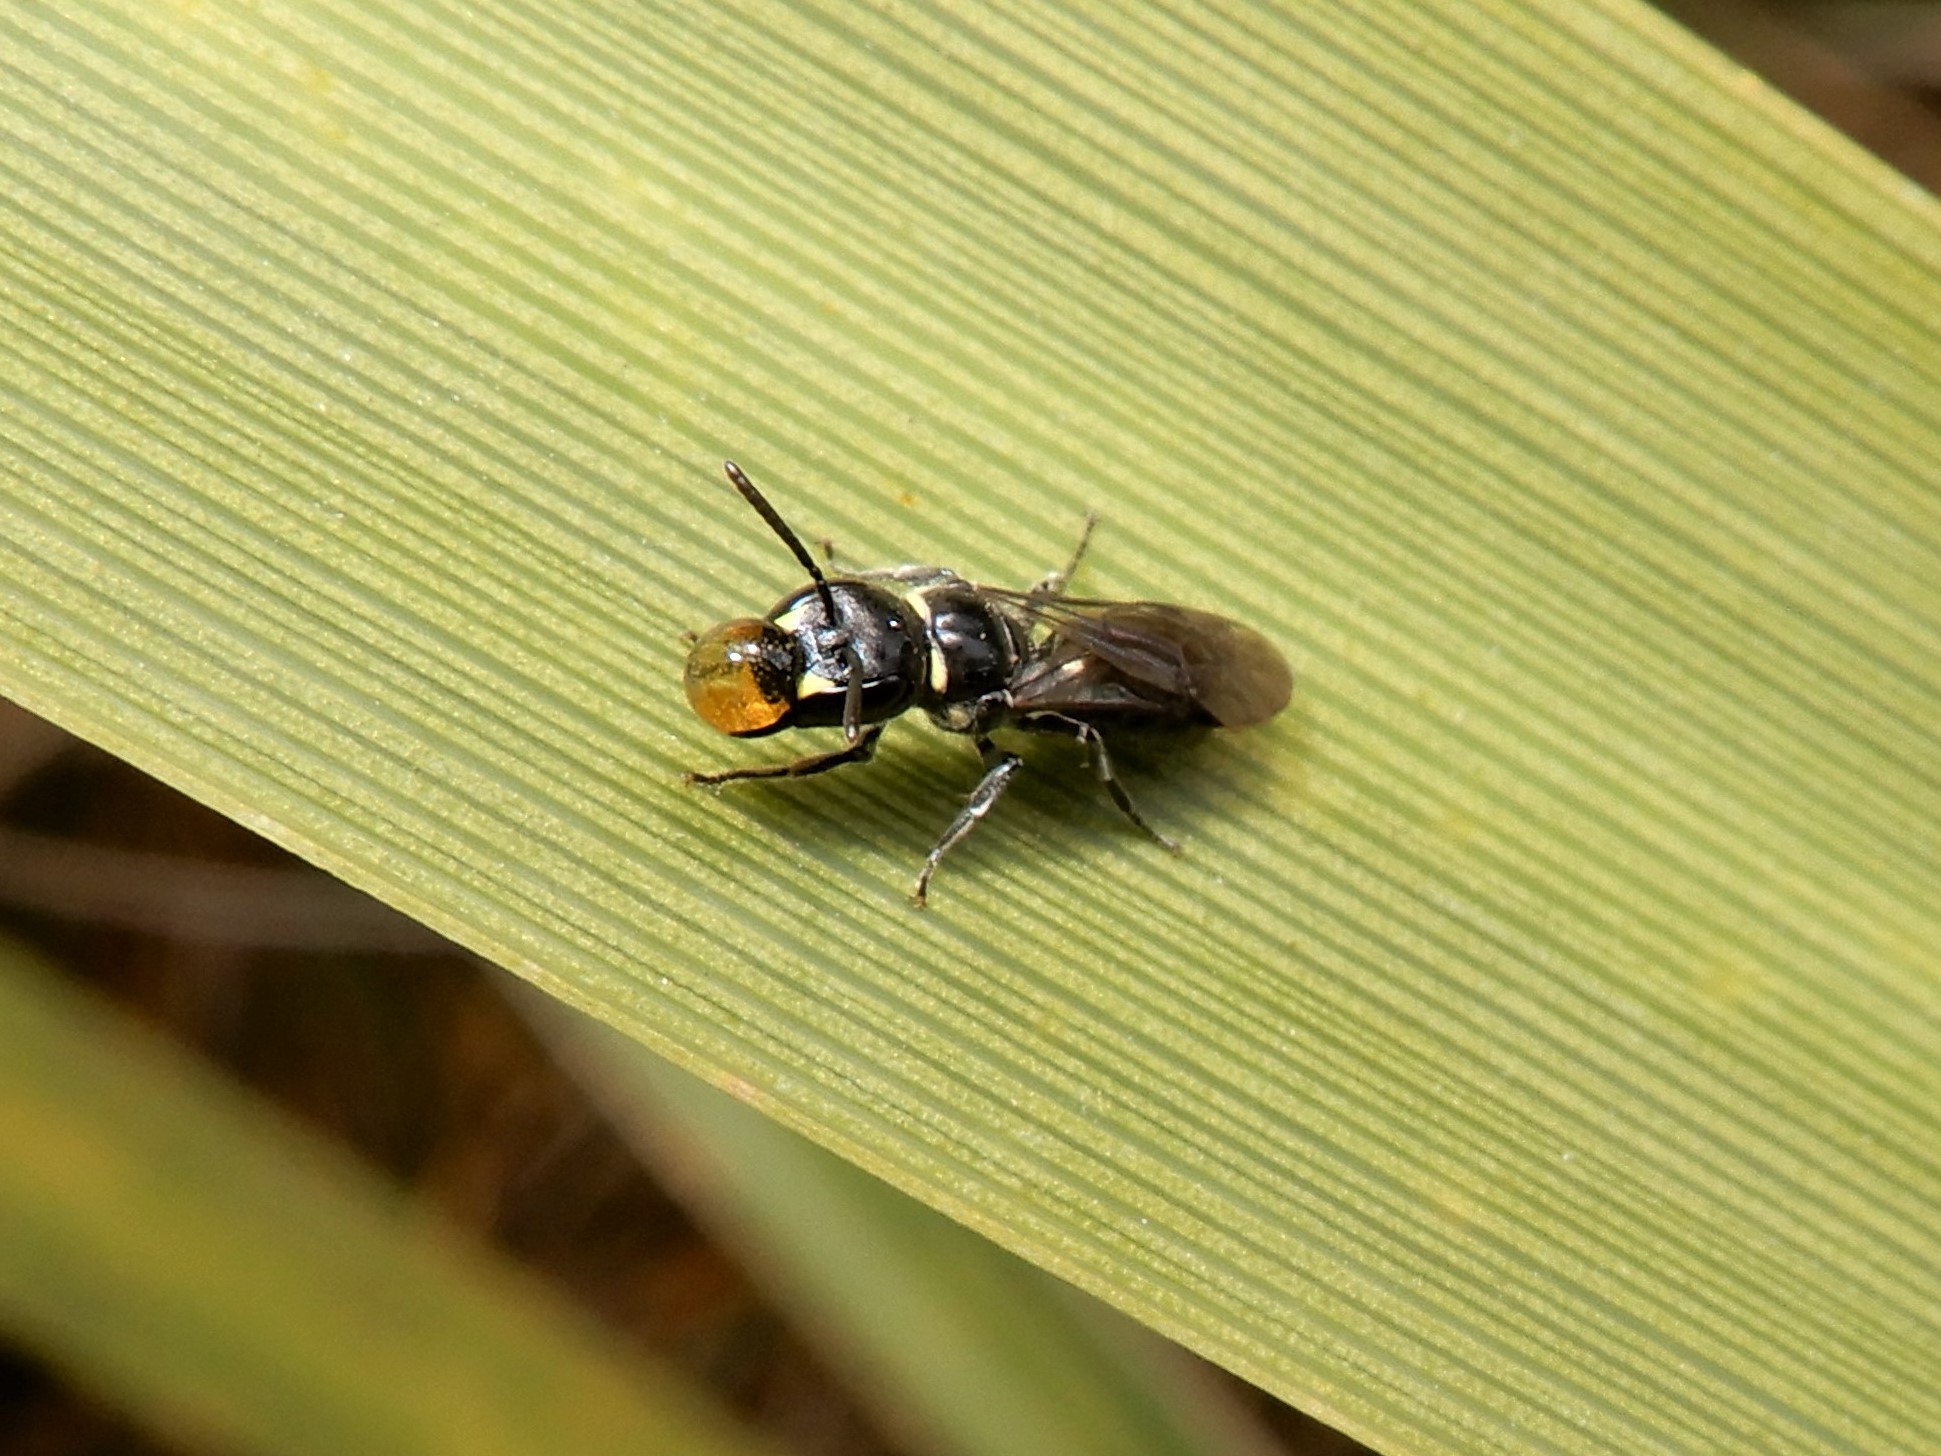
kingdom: Animalia
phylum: Arthropoda
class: Insecta
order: Hymenoptera
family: Colletidae
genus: Hylaeus
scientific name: Hylaeus relegatus
